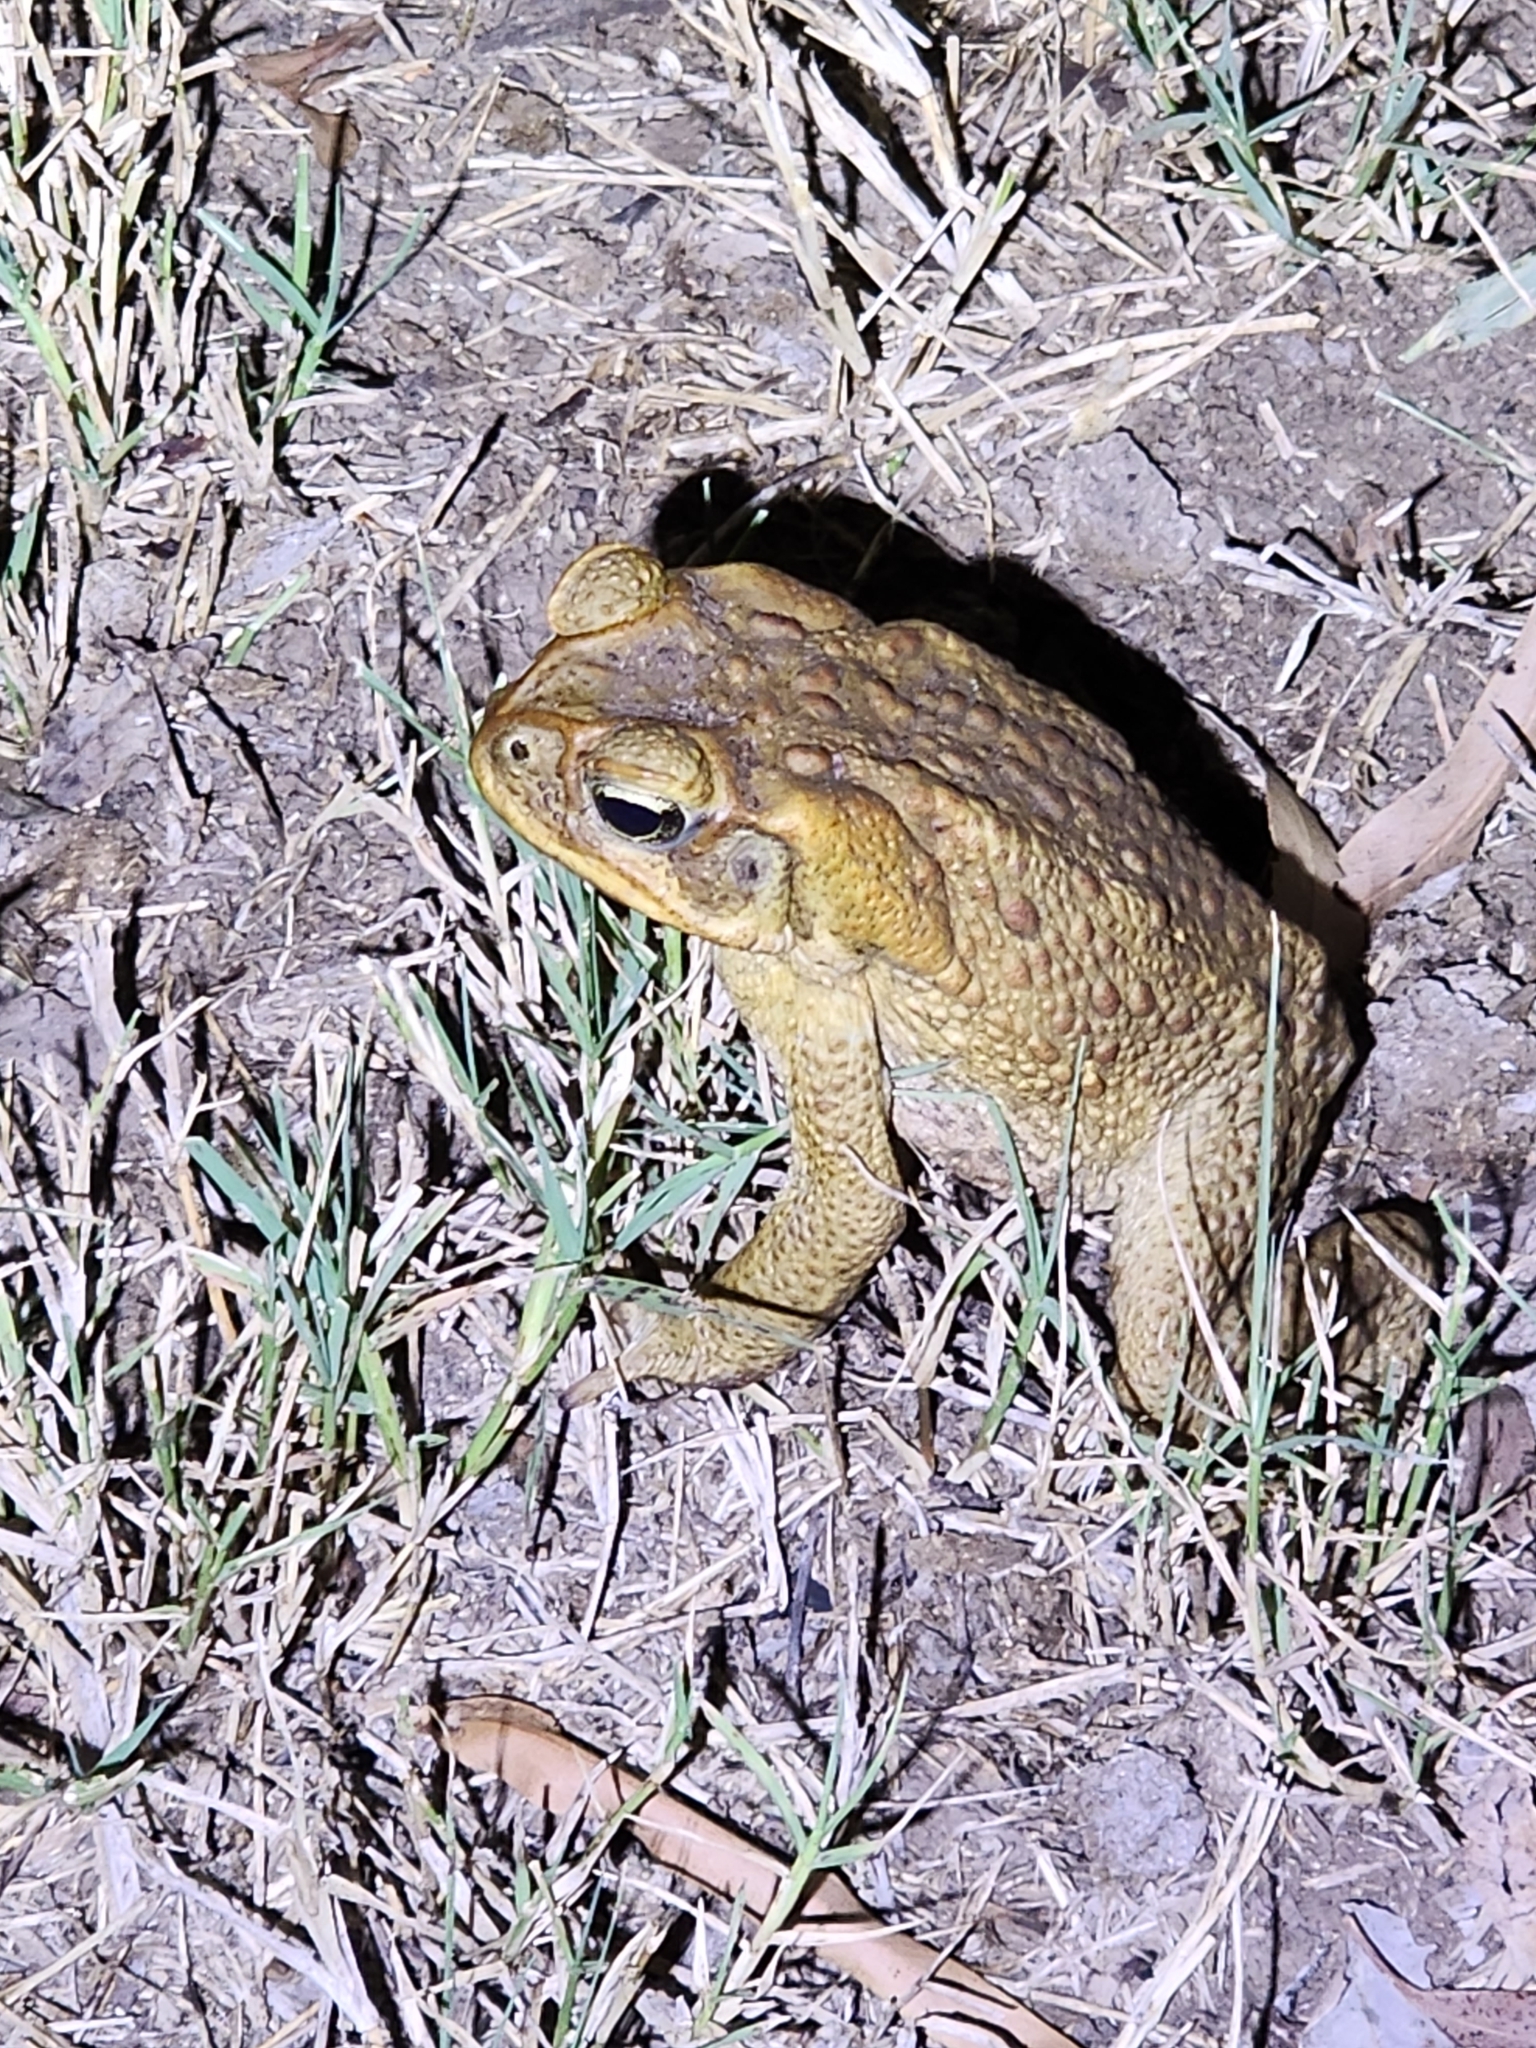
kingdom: Animalia
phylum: Chordata
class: Amphibia
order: Anura
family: Bufonidae
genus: Rhinella
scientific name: Rhinella marina
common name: Cane toad
